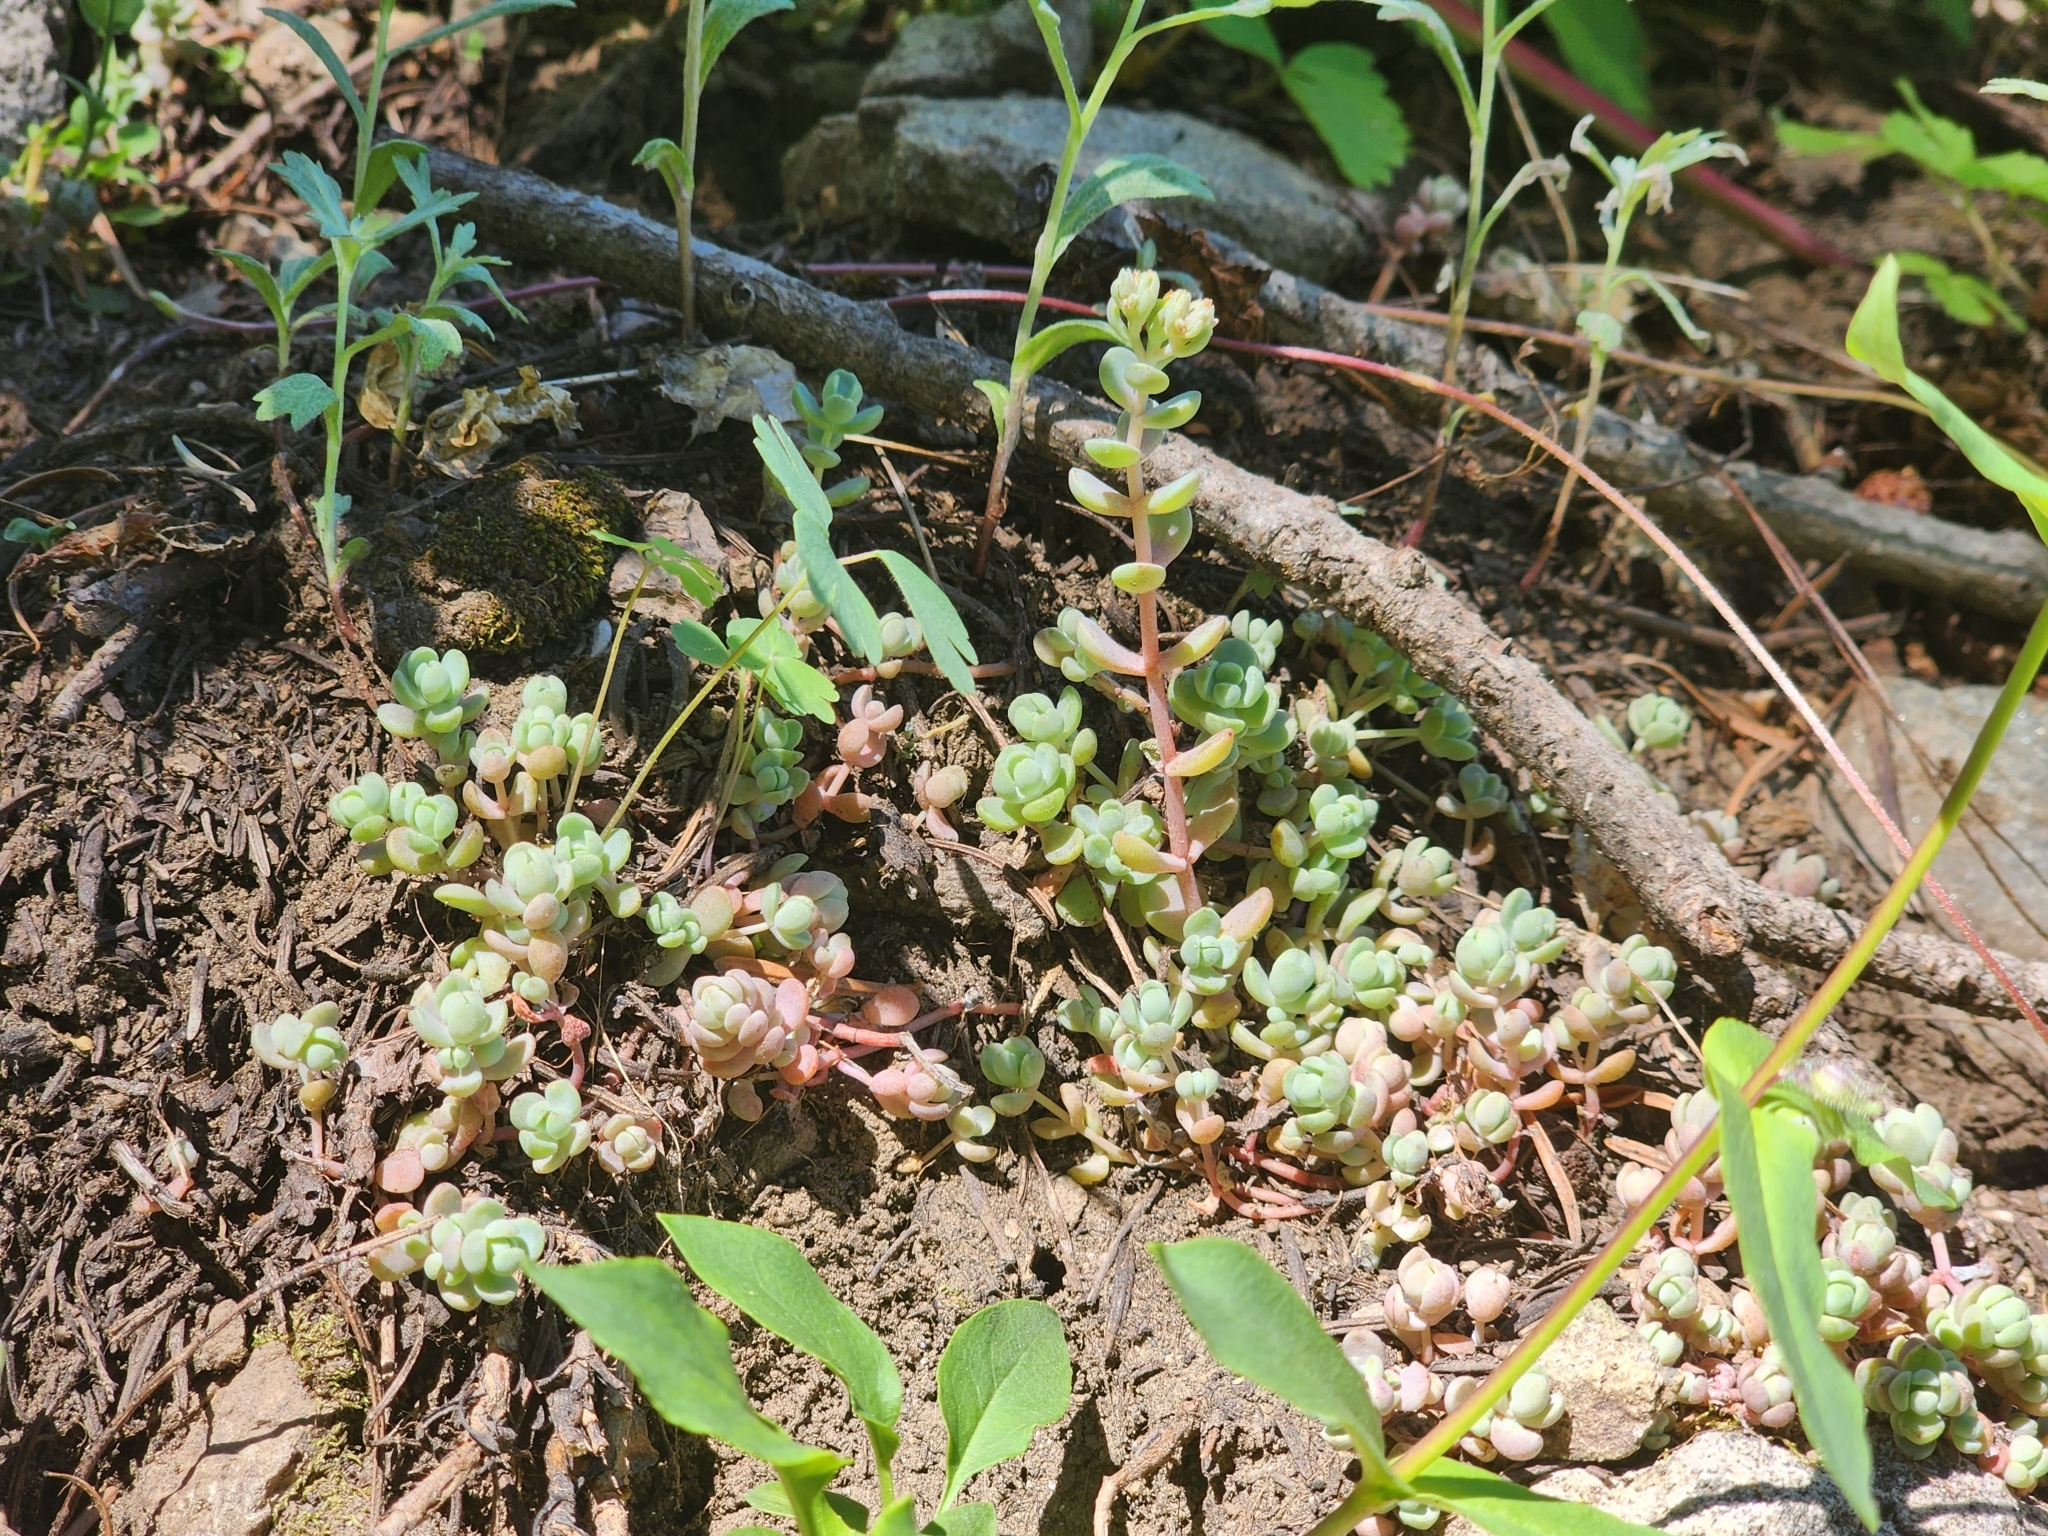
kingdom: Plantae
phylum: Tracheophyta
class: Magnoliopsida
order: Saxifragales
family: Crassulaceae
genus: Sedum
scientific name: Sedum debile
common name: Weak-stem stonecrop
